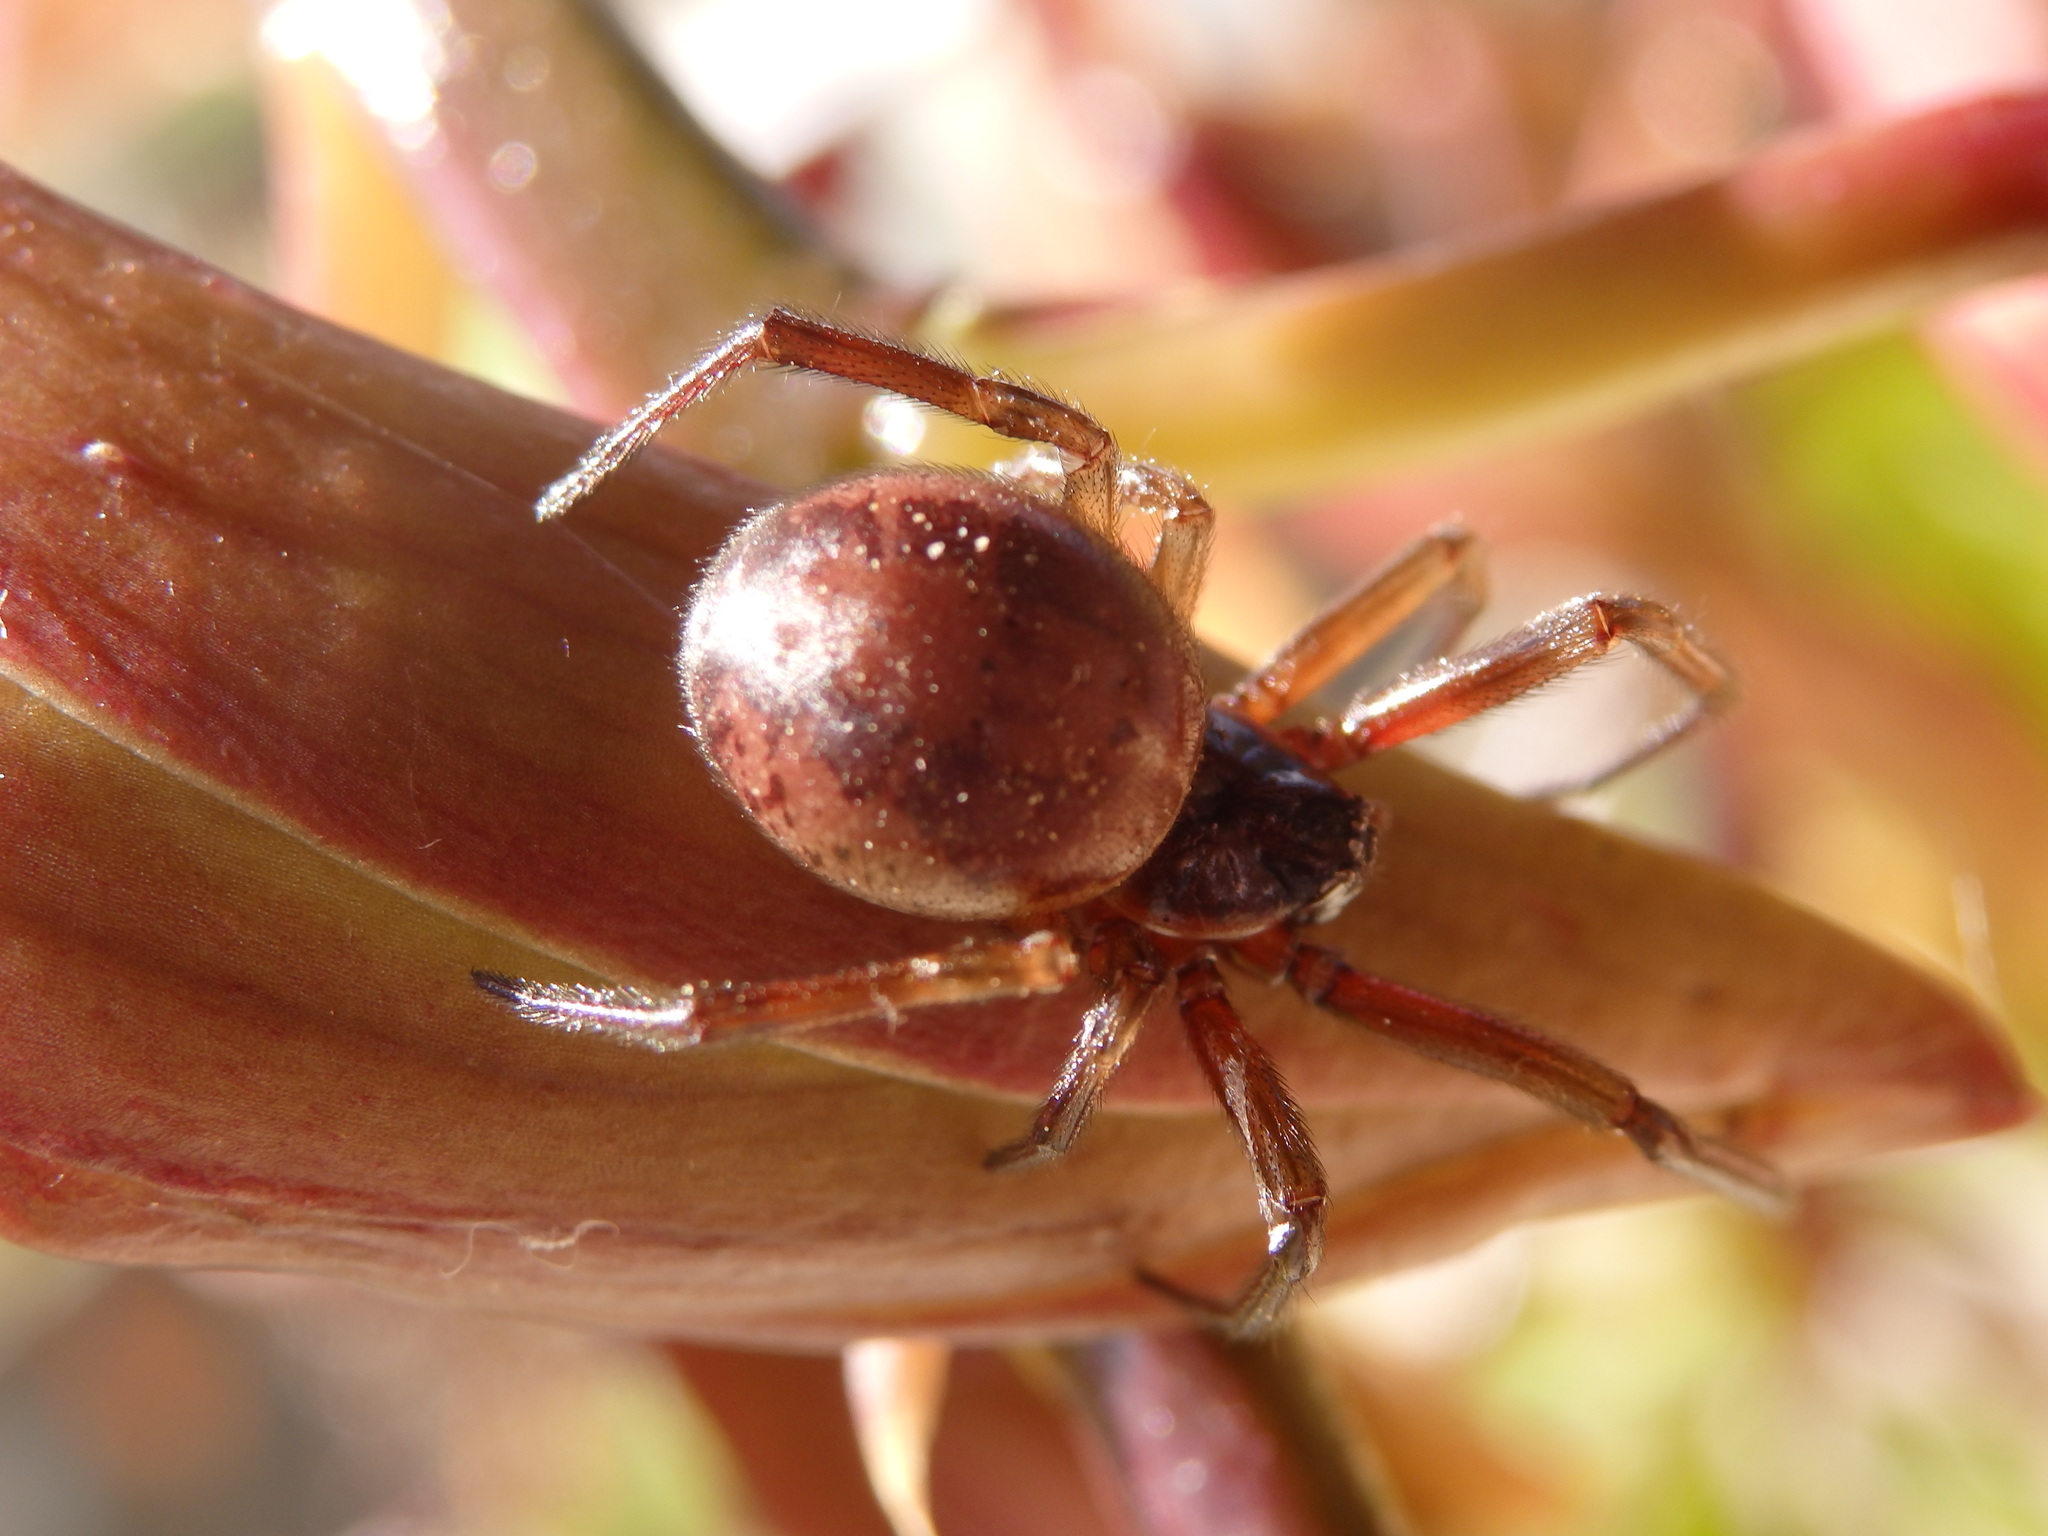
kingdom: Animalia
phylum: Arthropoda
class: Arachnida
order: Araneae
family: Theridiidae
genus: Steatoda
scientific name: Steatoda nobilis
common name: Cobweb weaver
